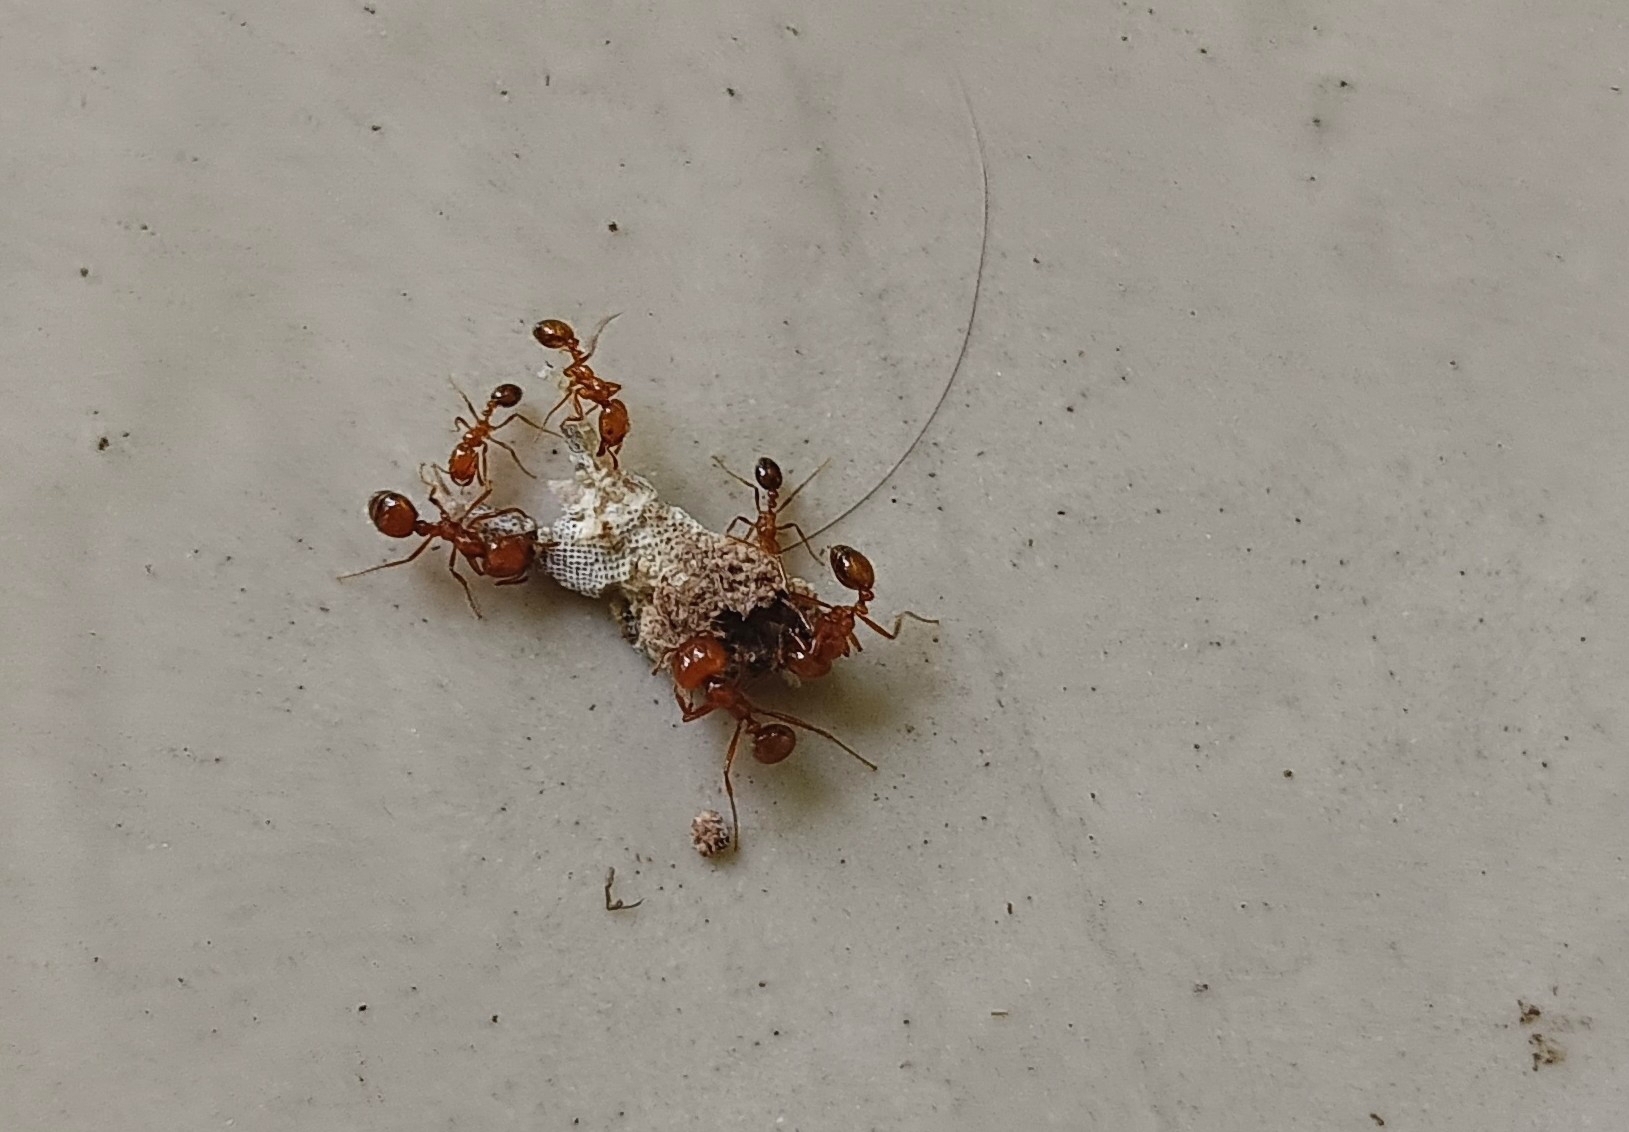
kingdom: Animalia
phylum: Arthropoda
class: Insecta
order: Hymenoptera
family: Formicidae
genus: Solenopsis
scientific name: Solenopsis geminata
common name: Tropical fire ant
